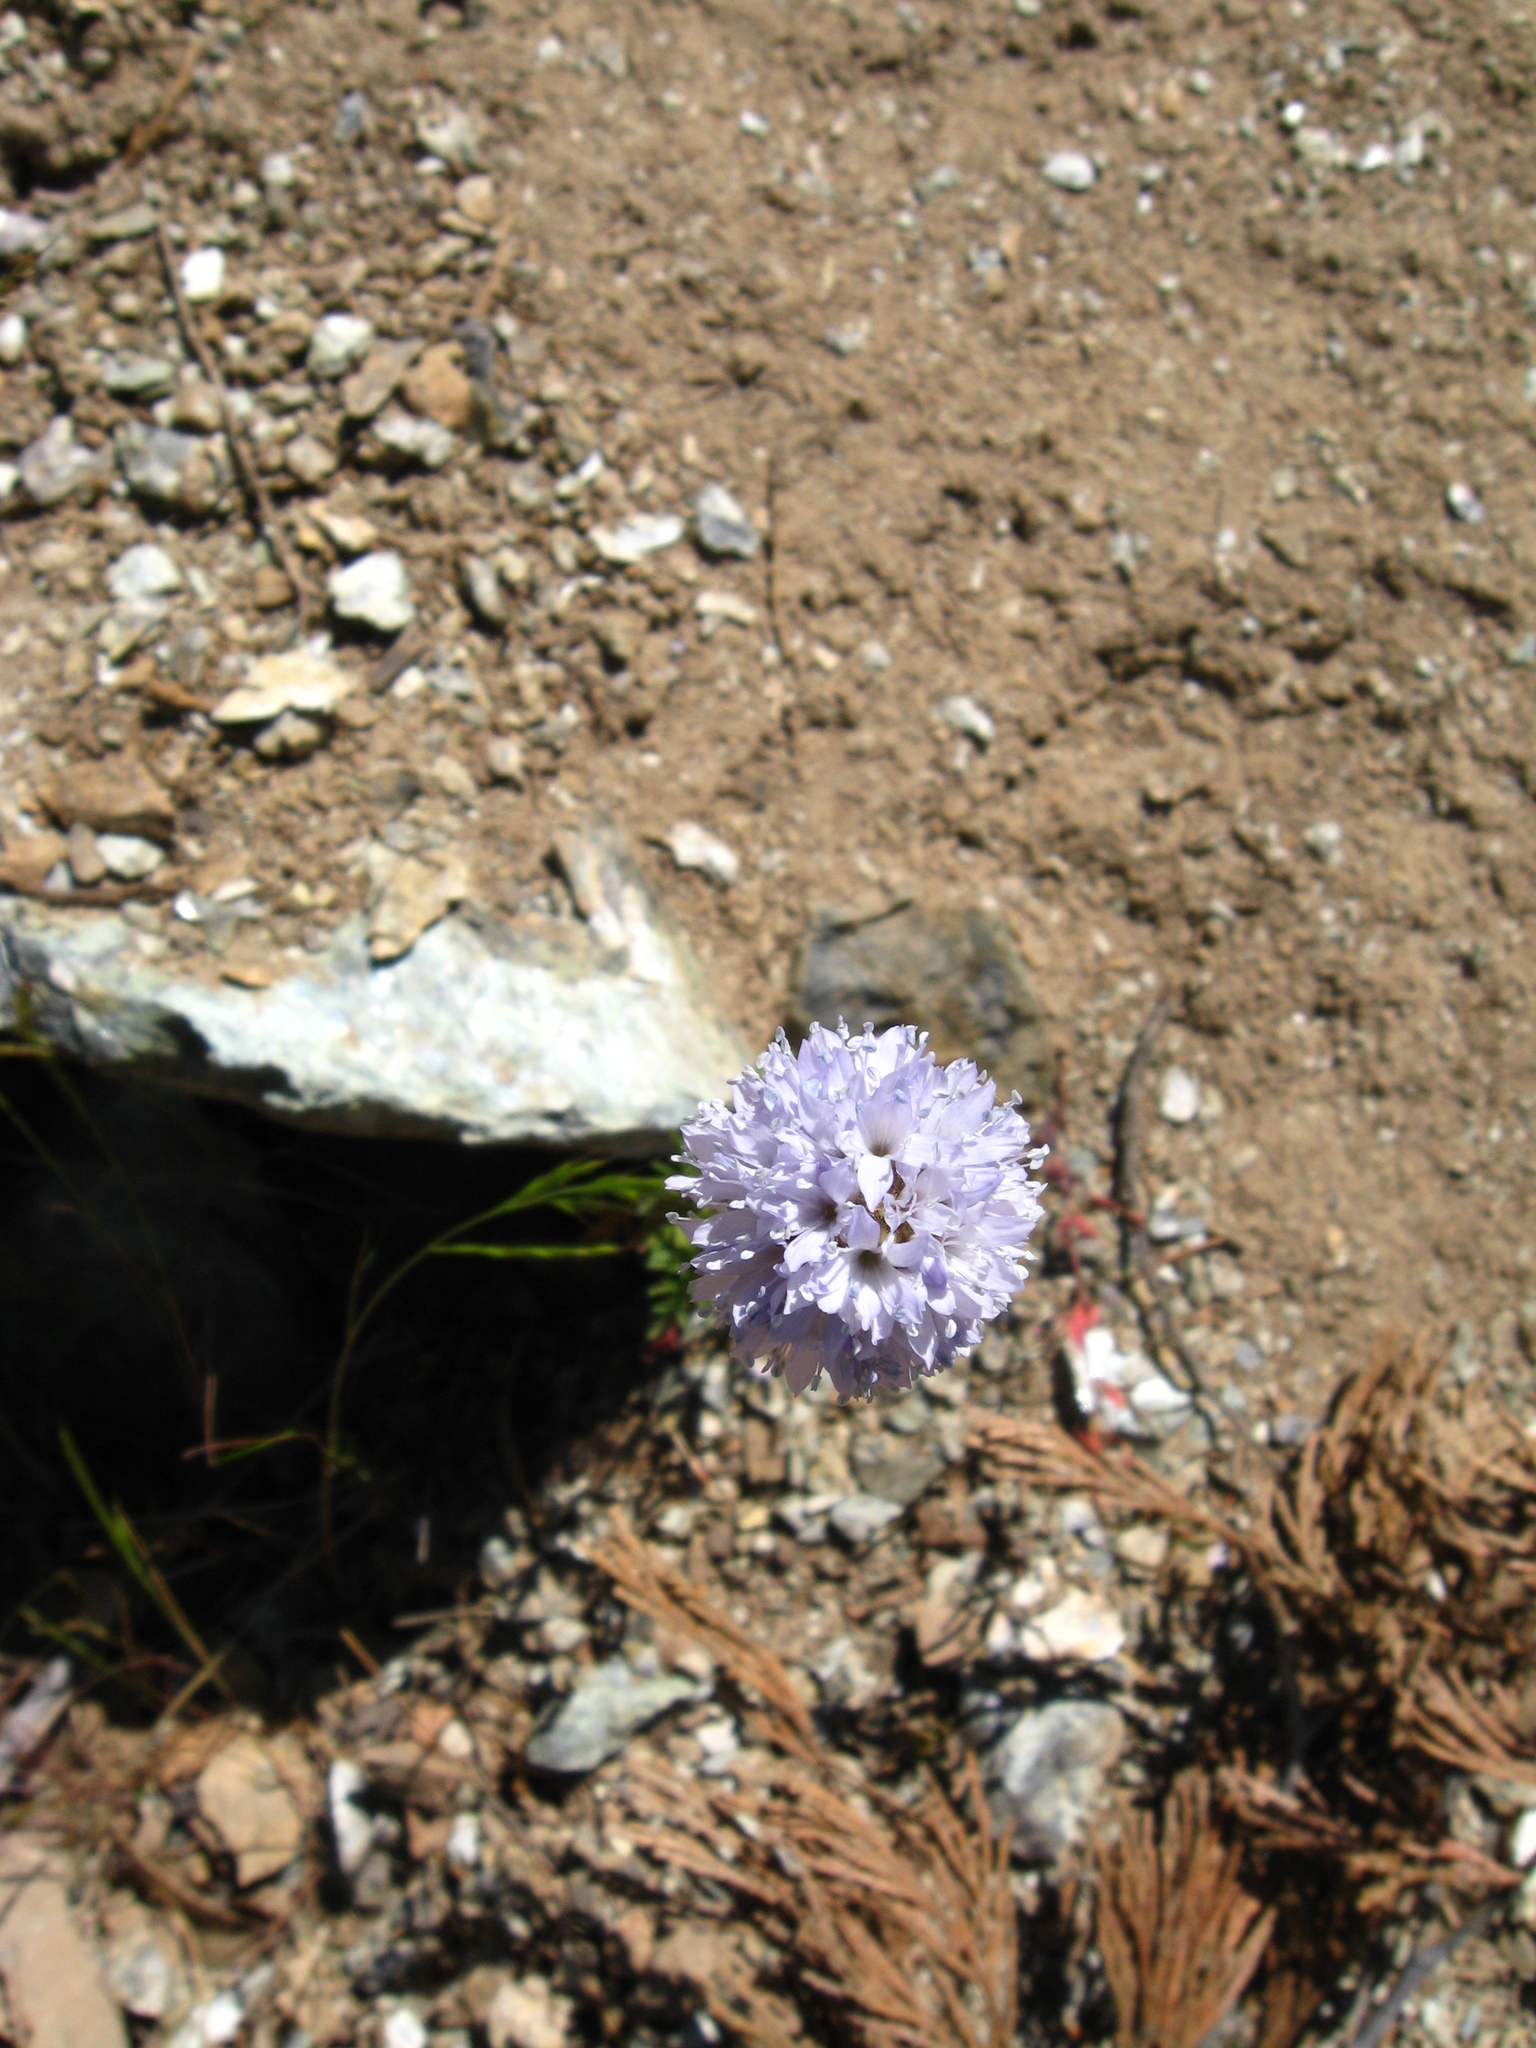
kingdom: Plantae
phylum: Tracheophyta
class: Magnoliopsida
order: Ericales
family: Polemoniaceae
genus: Gilia
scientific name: Gilia capitata
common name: Bluehead gilia
